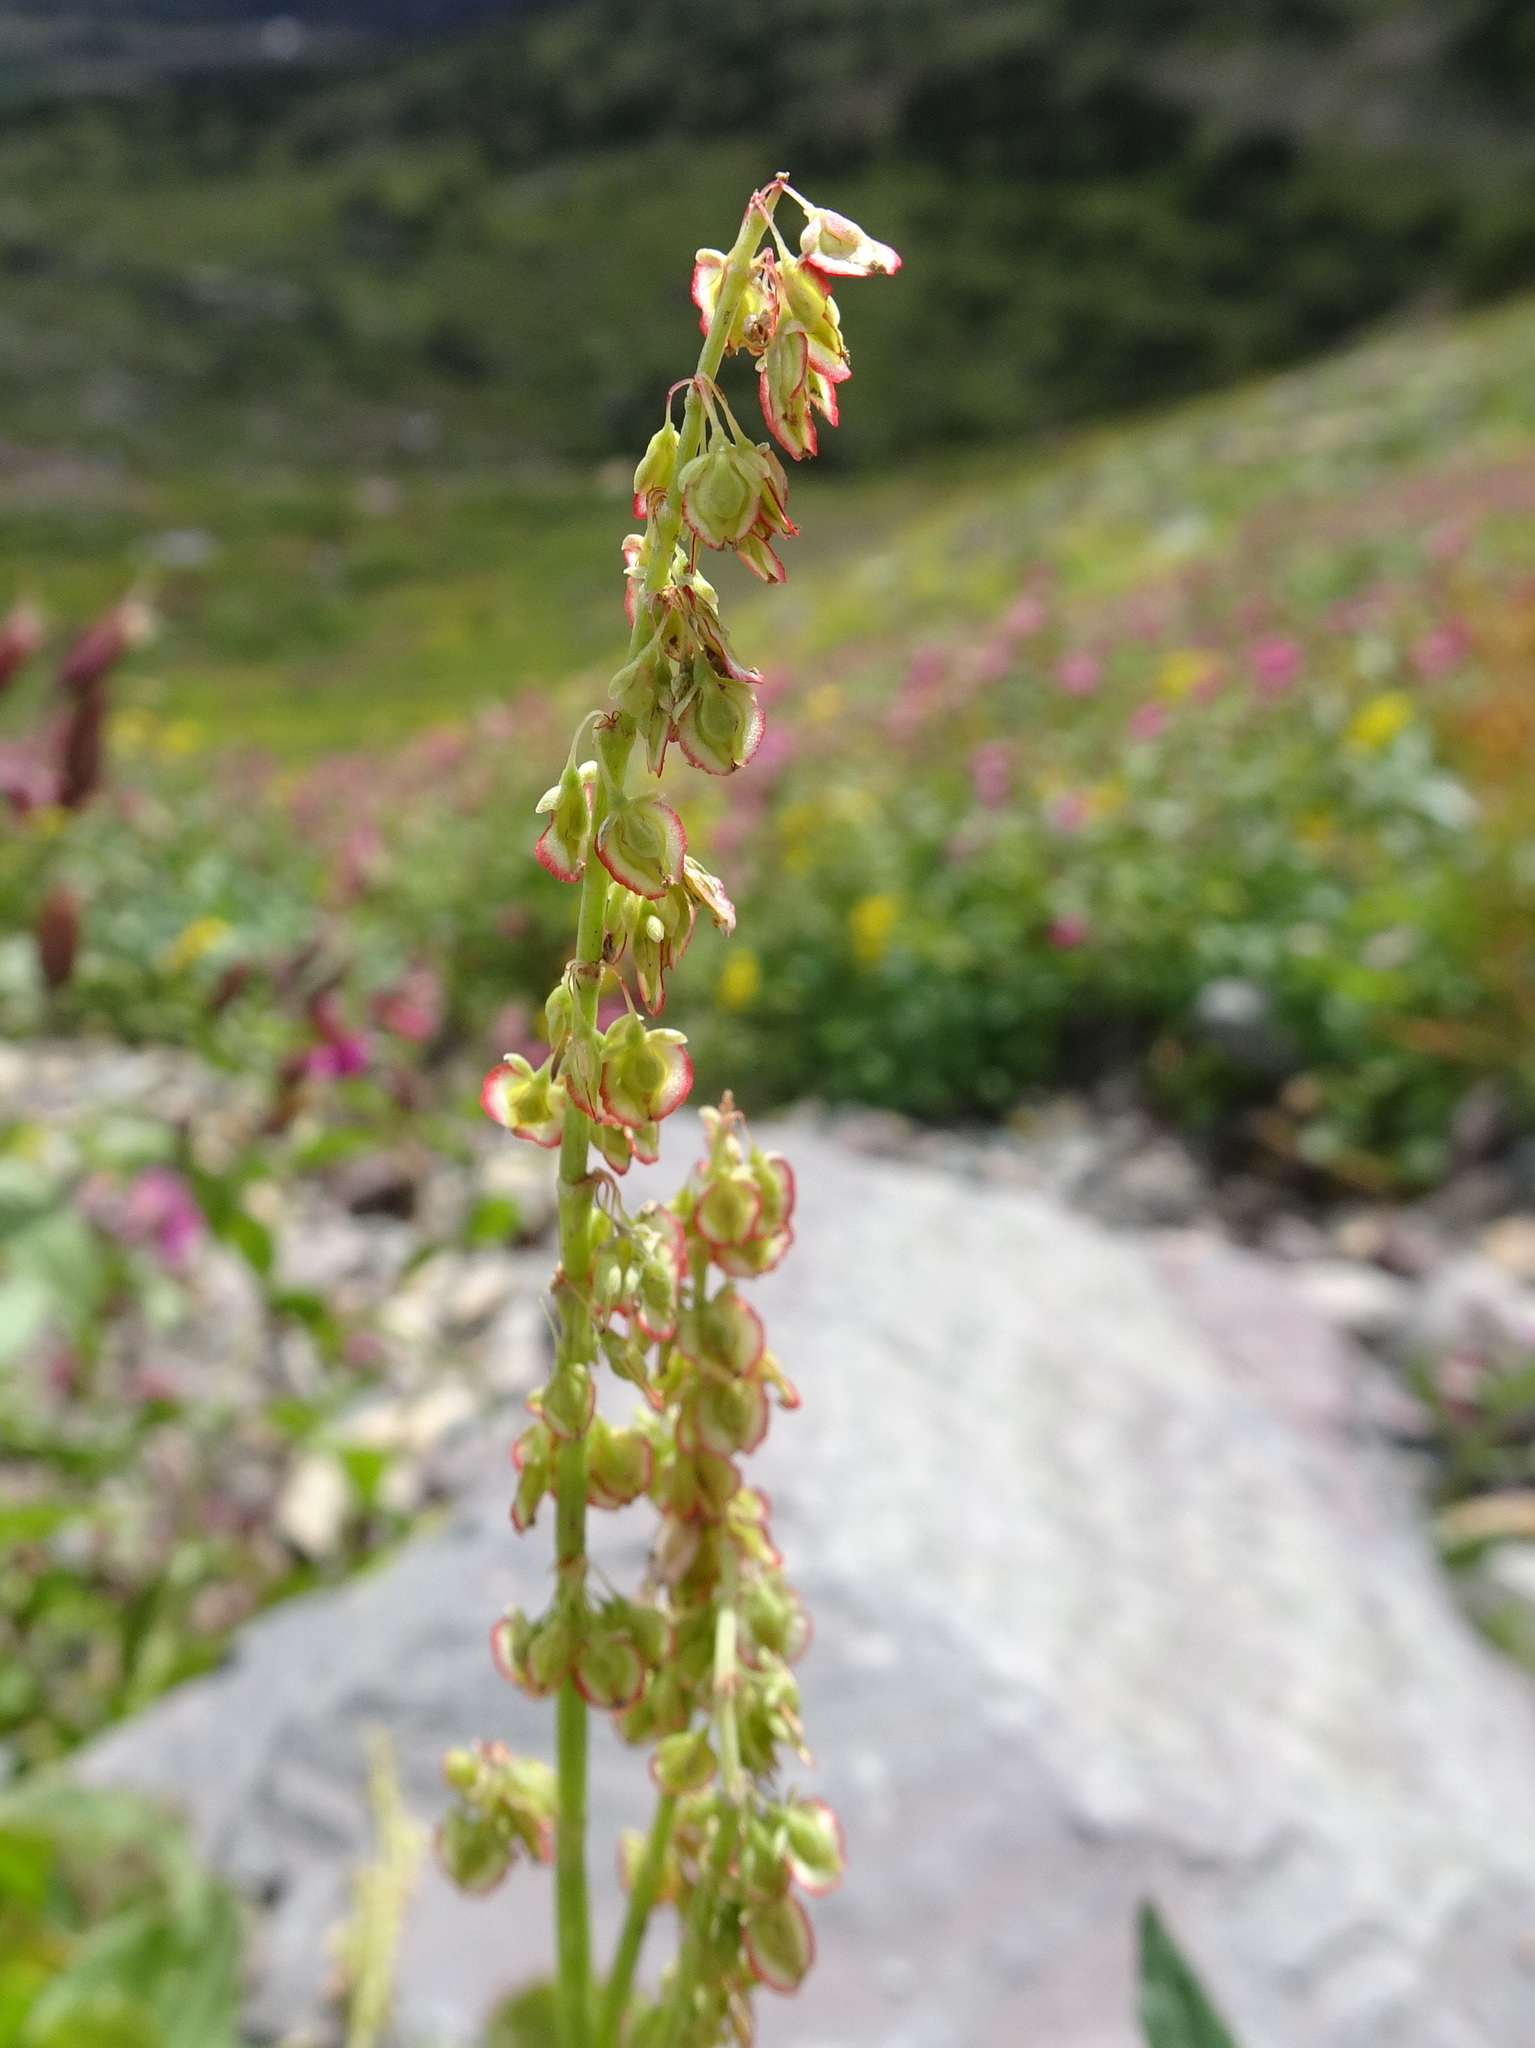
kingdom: Plantae
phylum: Tracheophyta
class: Magnoliopsida
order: Caryophyllales
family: Polygonaceae
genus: Oxyria
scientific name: Oxyria digyna
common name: Alpine mountain-sorrel
